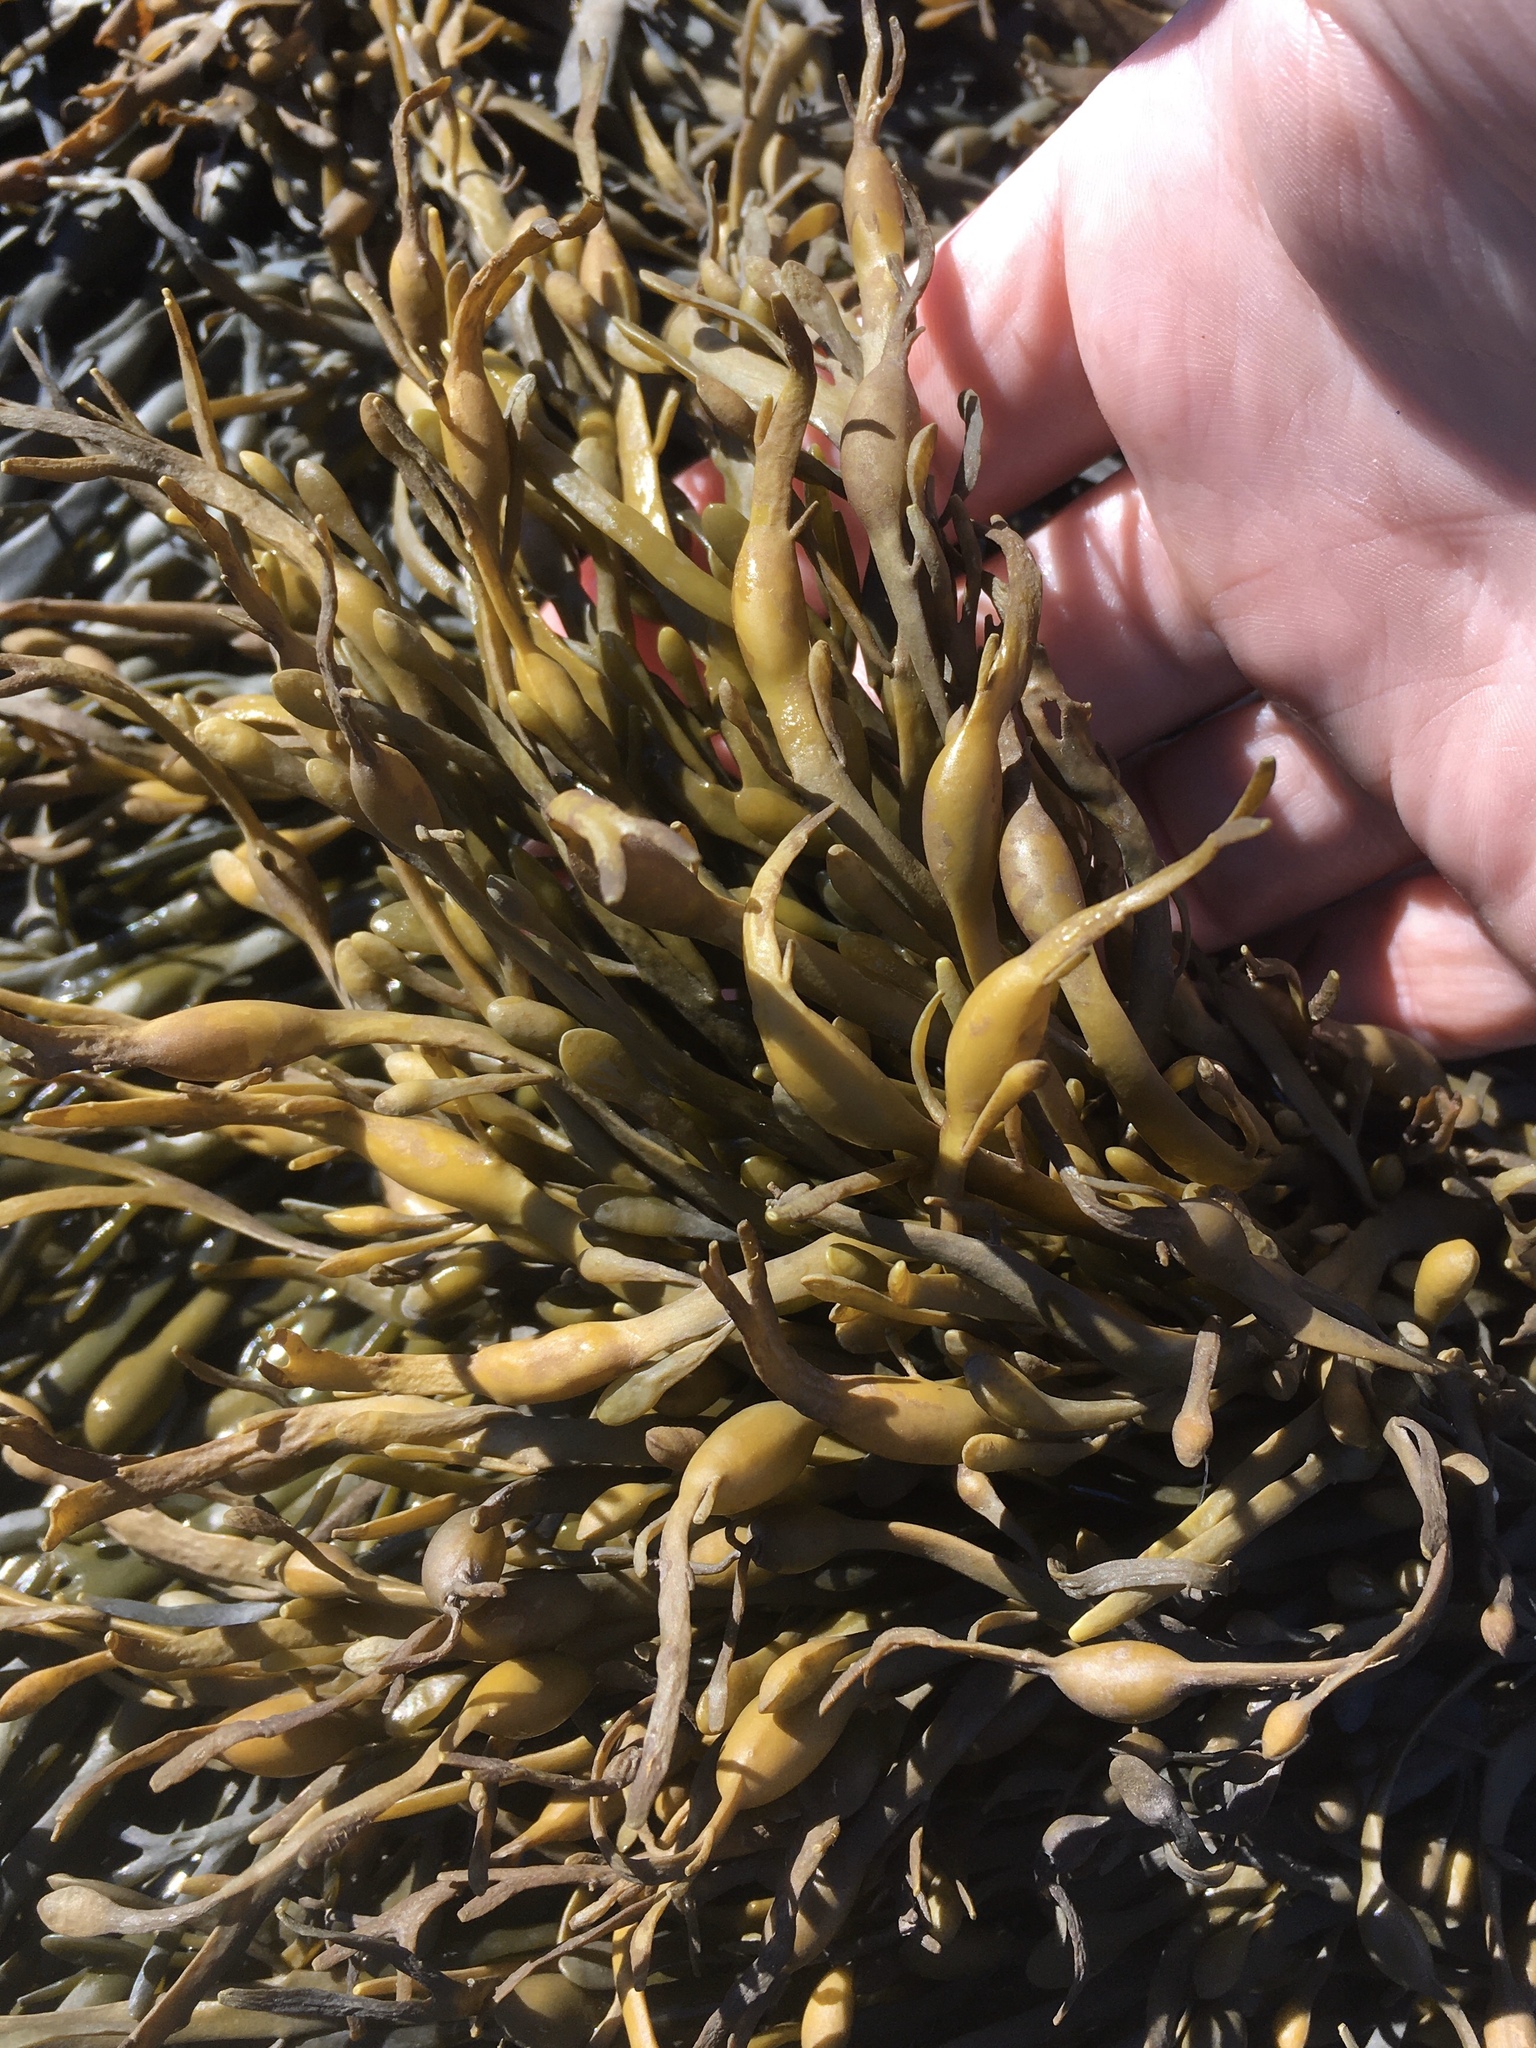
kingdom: Chromista
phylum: Ochrophyta
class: Phaeophyceae
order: Fucales
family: Fucaceae
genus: Ascophyllum
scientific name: Ascophyllum nodosum
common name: Knotted wrack
